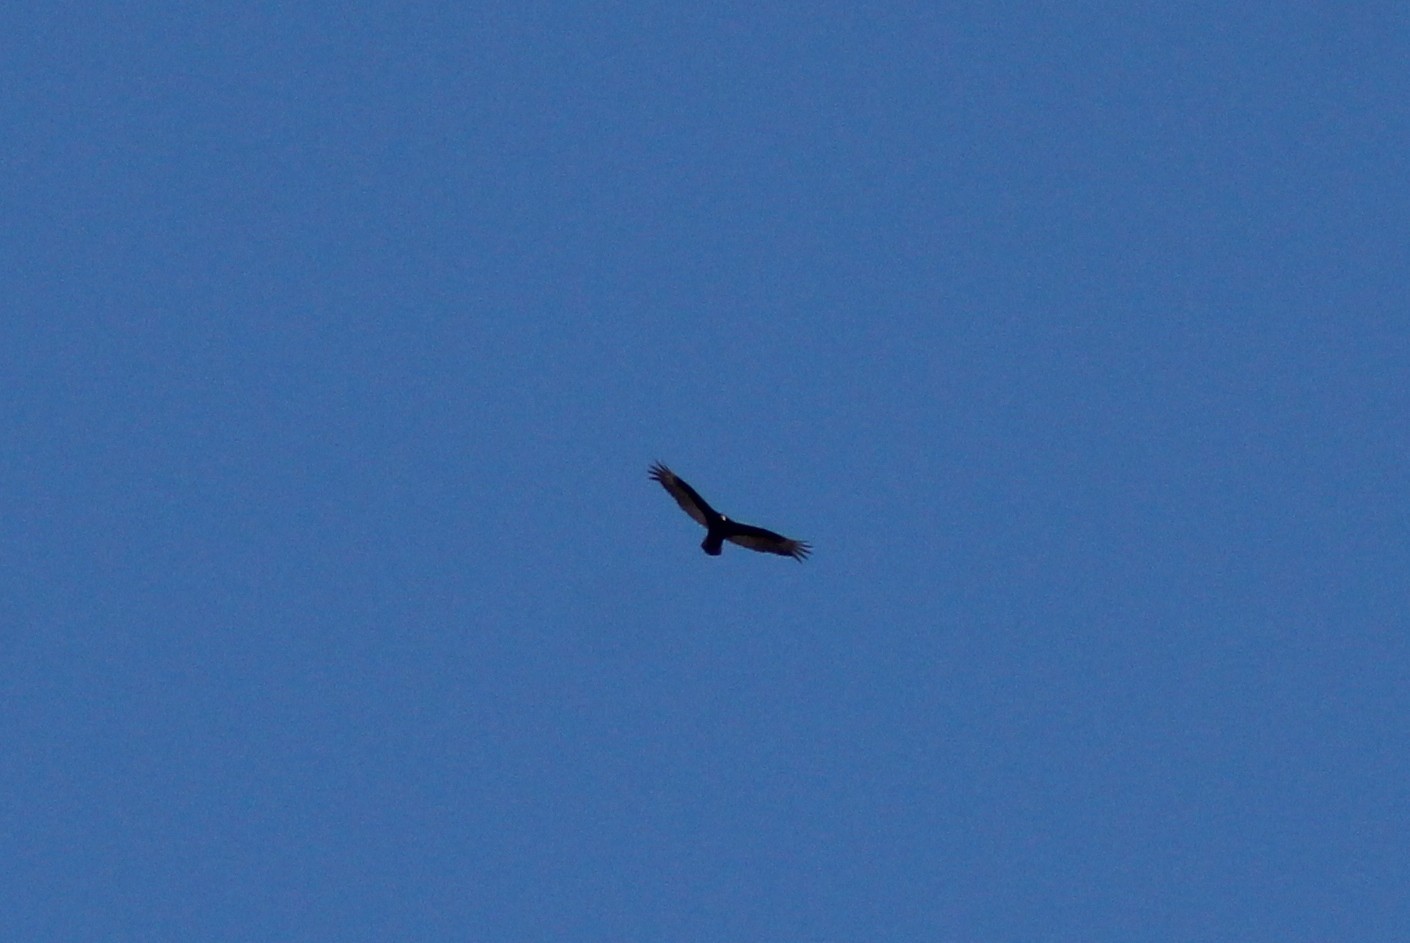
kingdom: Animalia
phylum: Chordata
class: Aves
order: Accipitriformes
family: Cathartidae
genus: Cathartes
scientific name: Cathartes aura
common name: Turkey vulture
